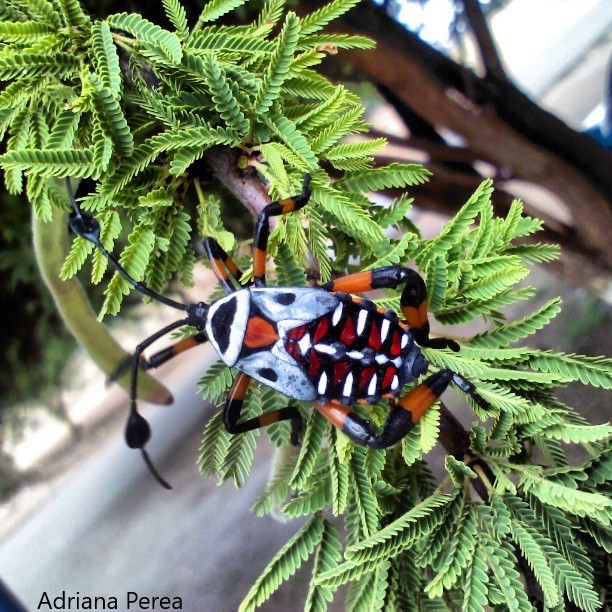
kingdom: Animalia
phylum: Arthropoda
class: Insecta
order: Hemiptera
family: Coreidae
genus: Thasus
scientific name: Thasus
